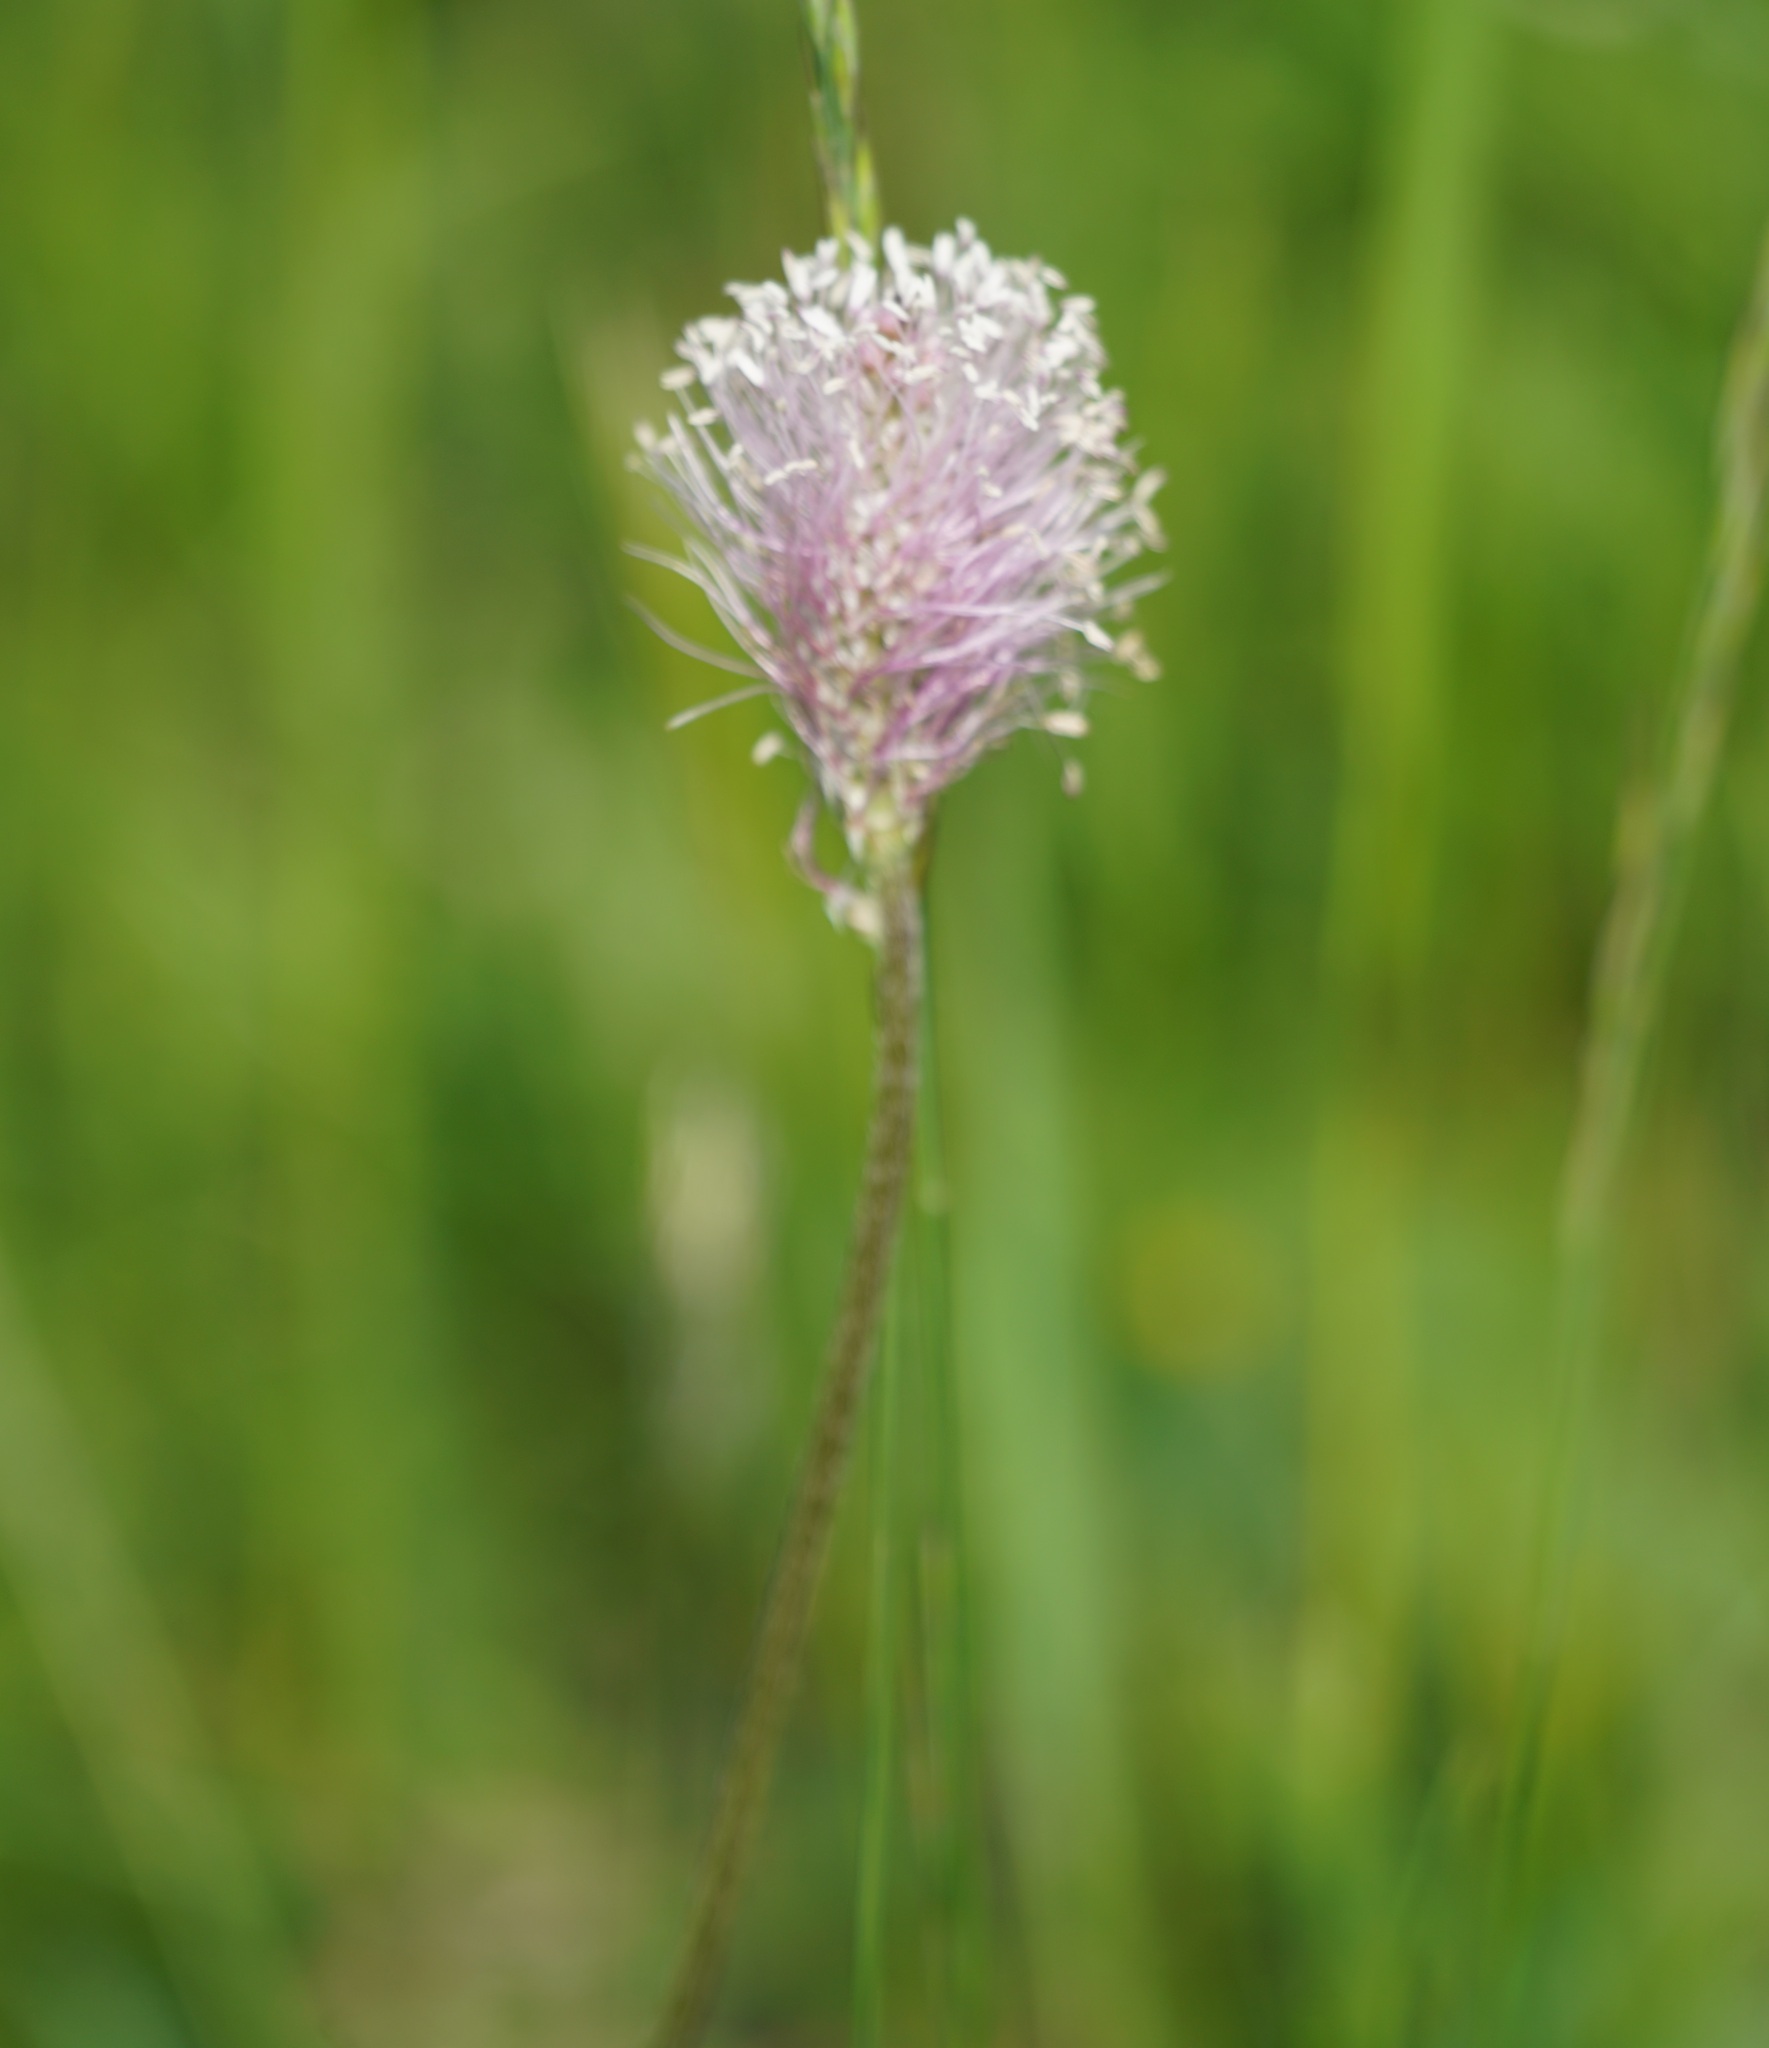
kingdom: Plantae
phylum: Tracheophyta
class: Magnoliopsida
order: Lamiales
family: Plantaginaceae
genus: Plantago
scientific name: Plantago media
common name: Hoary plantain
